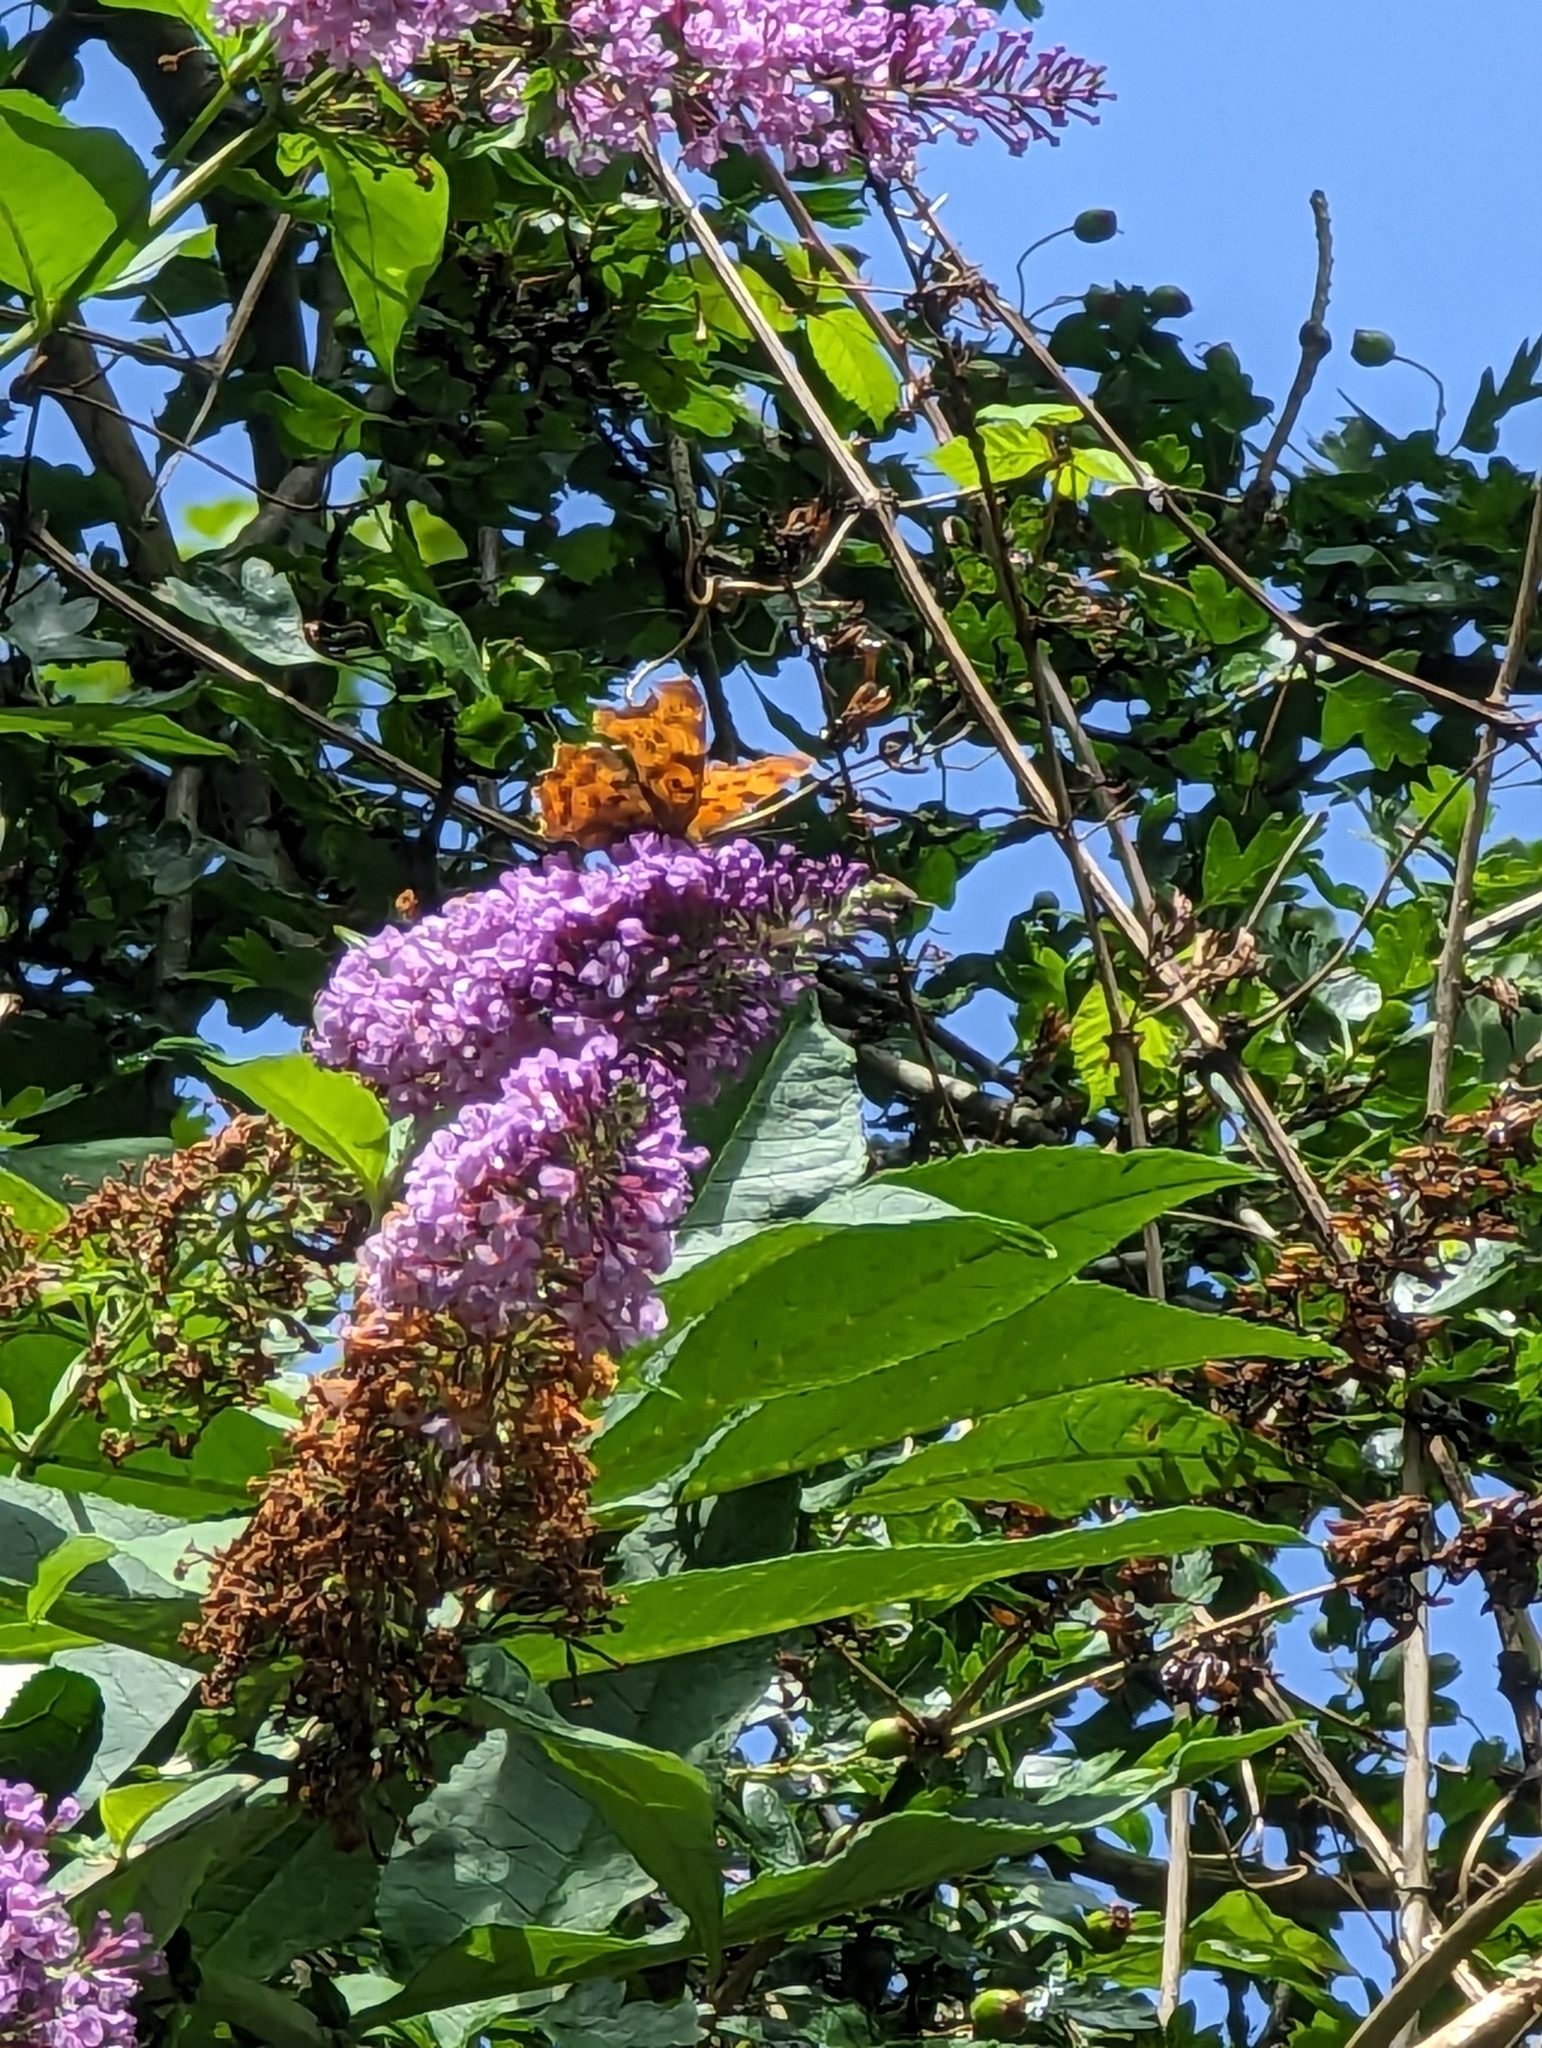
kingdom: Animalia
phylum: Arthropoda
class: Insecta
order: Lepidoptera
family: Nymphalidae
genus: Polygonia
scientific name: Polygonia c-album
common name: Comma
